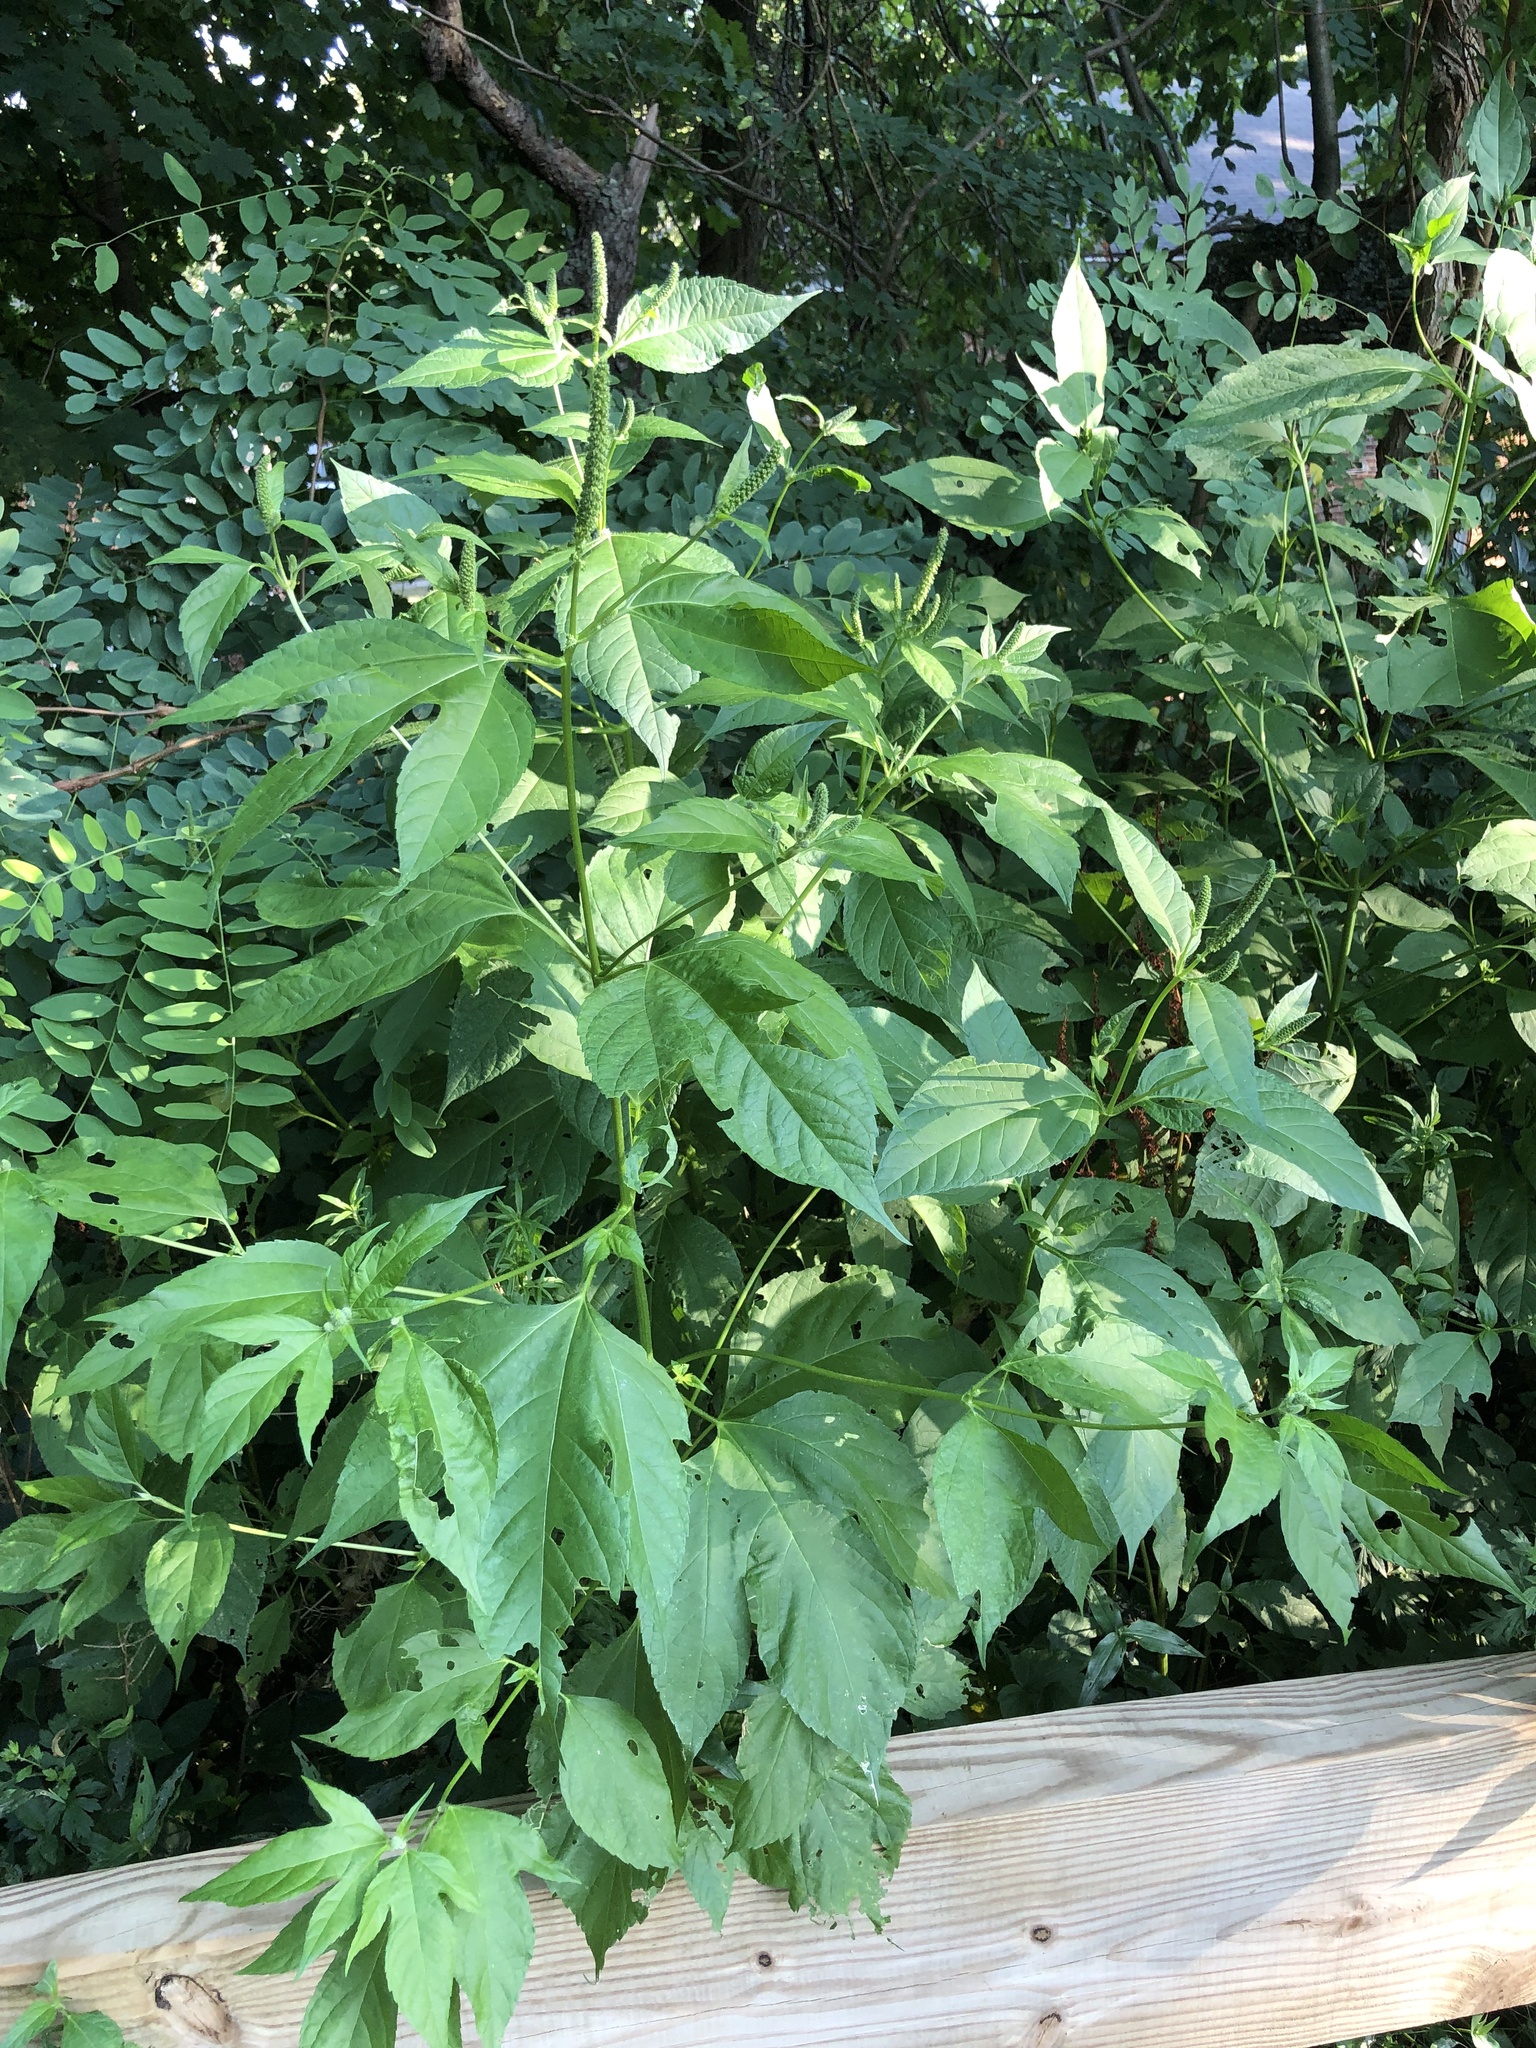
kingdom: Plantae
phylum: Tracheophyta
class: Magnoliopsida
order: Asterales
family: Asteraceae
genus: Ambrosia
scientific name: Ambrosia trifida
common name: Giant ragweed
